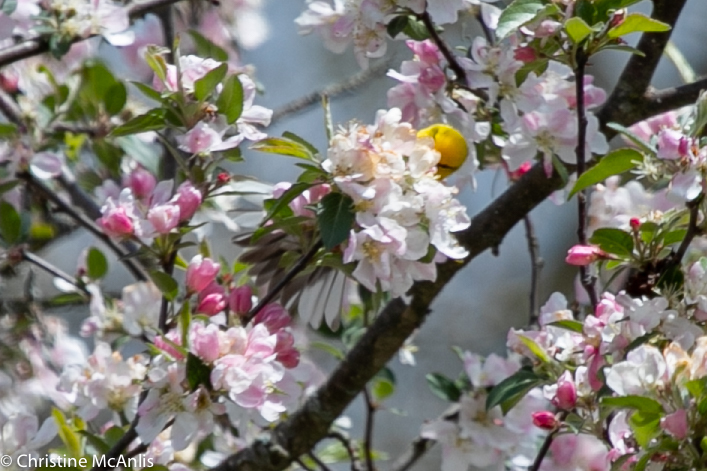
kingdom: Animalia
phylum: Chordata
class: Aves
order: Passeriformes
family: Parulidae
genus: Vermivora
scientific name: Vermivora cyanoptera
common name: Blue-winged warbler
